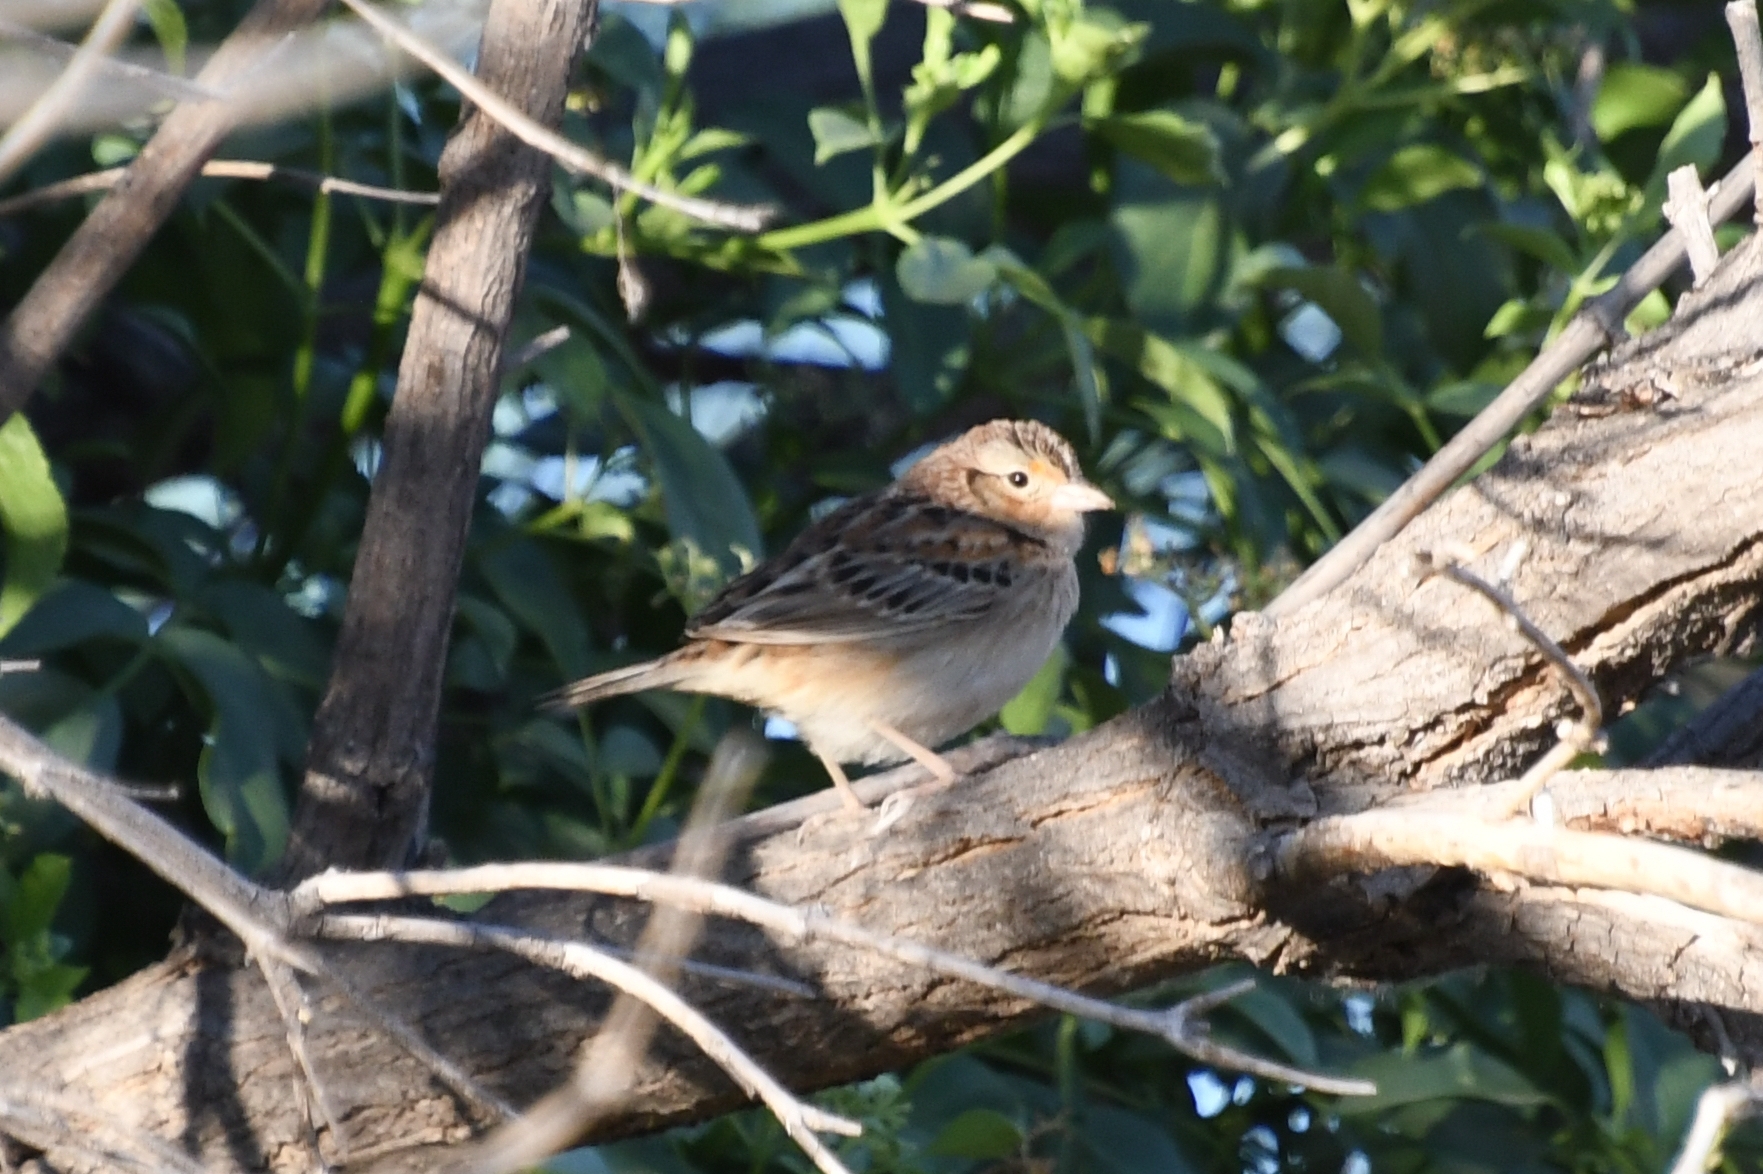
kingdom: Animalia
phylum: Chordata
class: Aves
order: Passeriformes
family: Passerellidae
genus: Ammodramus
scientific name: Ammodramus savannarum
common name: Grasshopper sparrow
